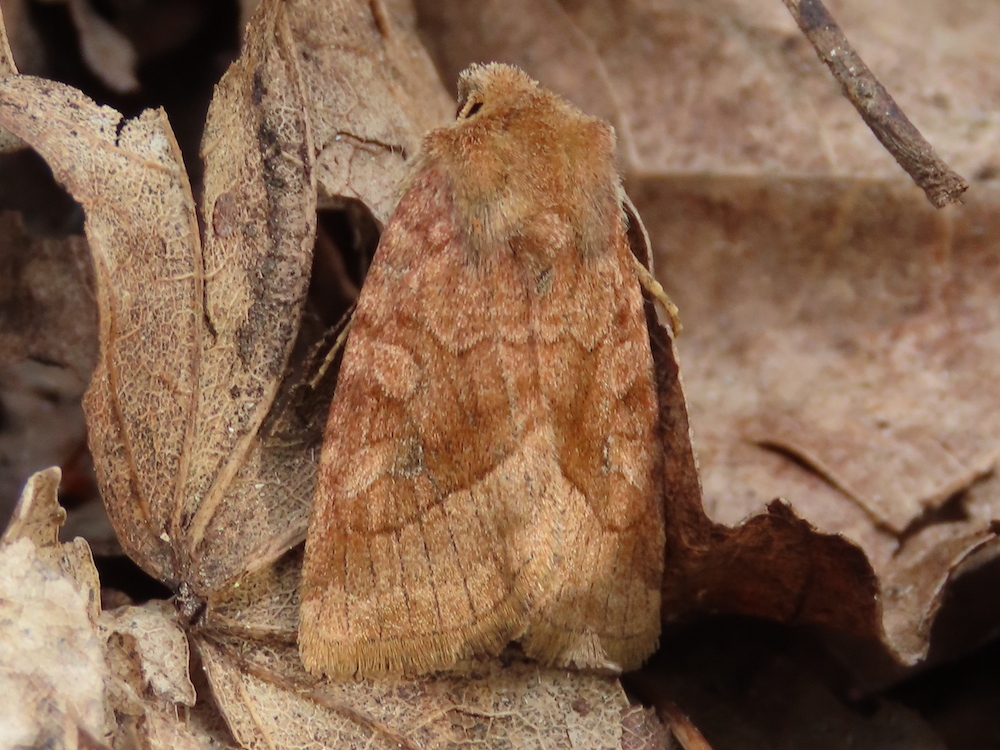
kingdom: Animalia
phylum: Arthropoda
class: Insecta
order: Lepidoptera
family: Noctuidae
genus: Lacinipolia
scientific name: Lacinipolia lorea
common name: Bridled arches moth
